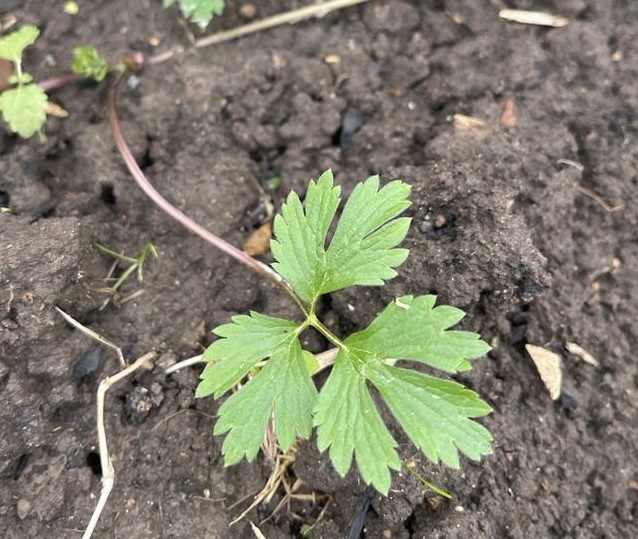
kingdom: Plantae
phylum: Tracheophyta
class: Magnoliopsida
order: Ranunculales
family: Ranunculaceae
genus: Ranunculus
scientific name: Ranunculus repens
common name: Creeping buttercup
